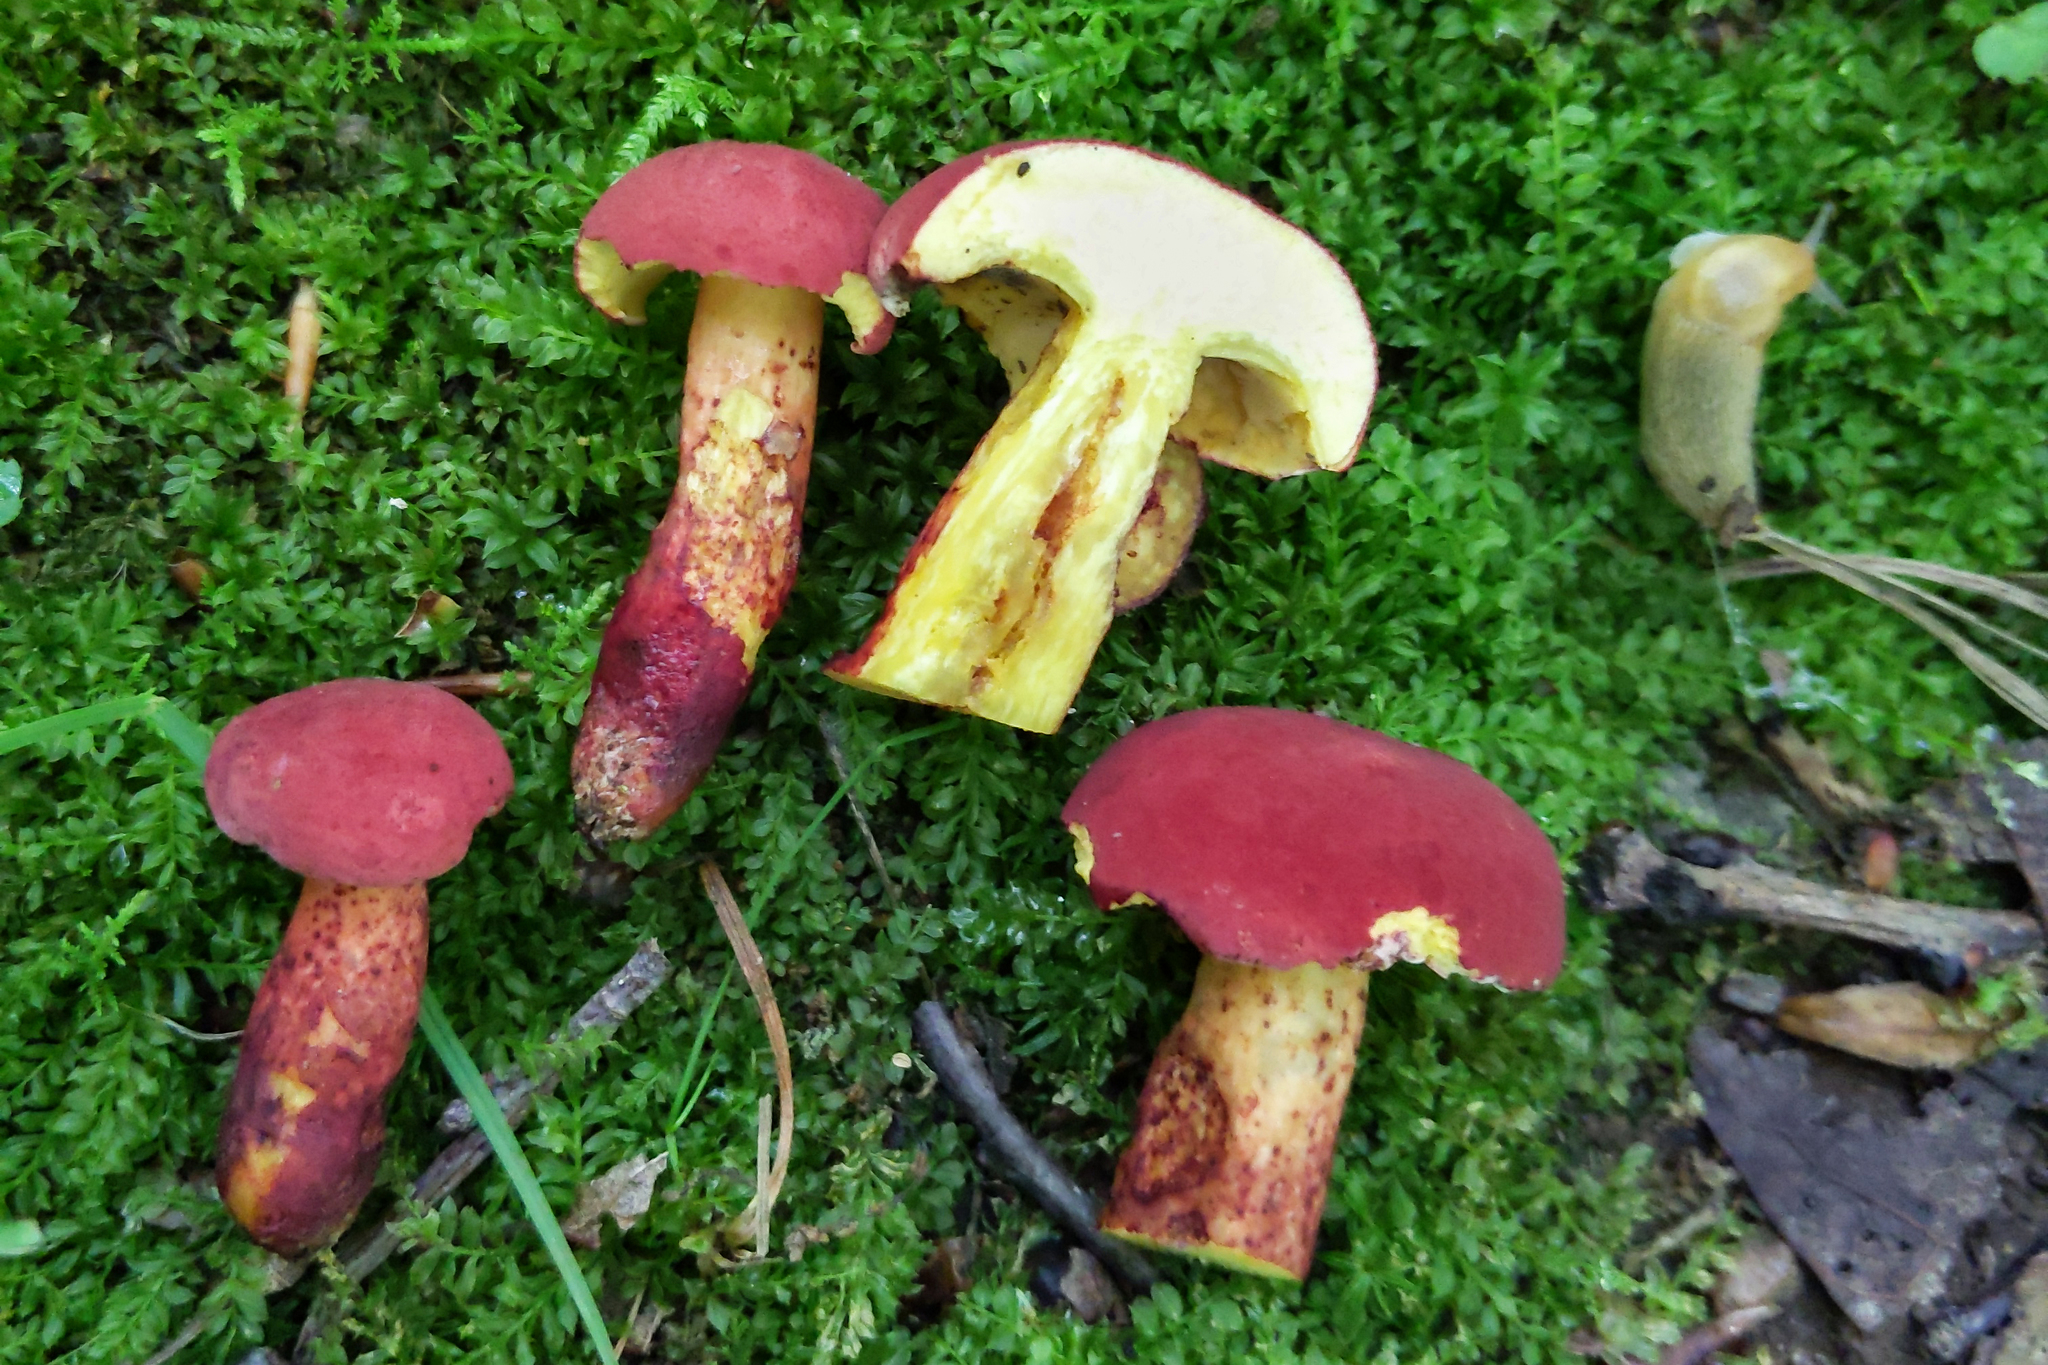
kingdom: Fungi
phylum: Basidiomycota
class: Agaricomycetes
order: Boletales
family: Boletaceae
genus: Baorangia
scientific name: Baorangia bicolor
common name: Two-colored bolete
